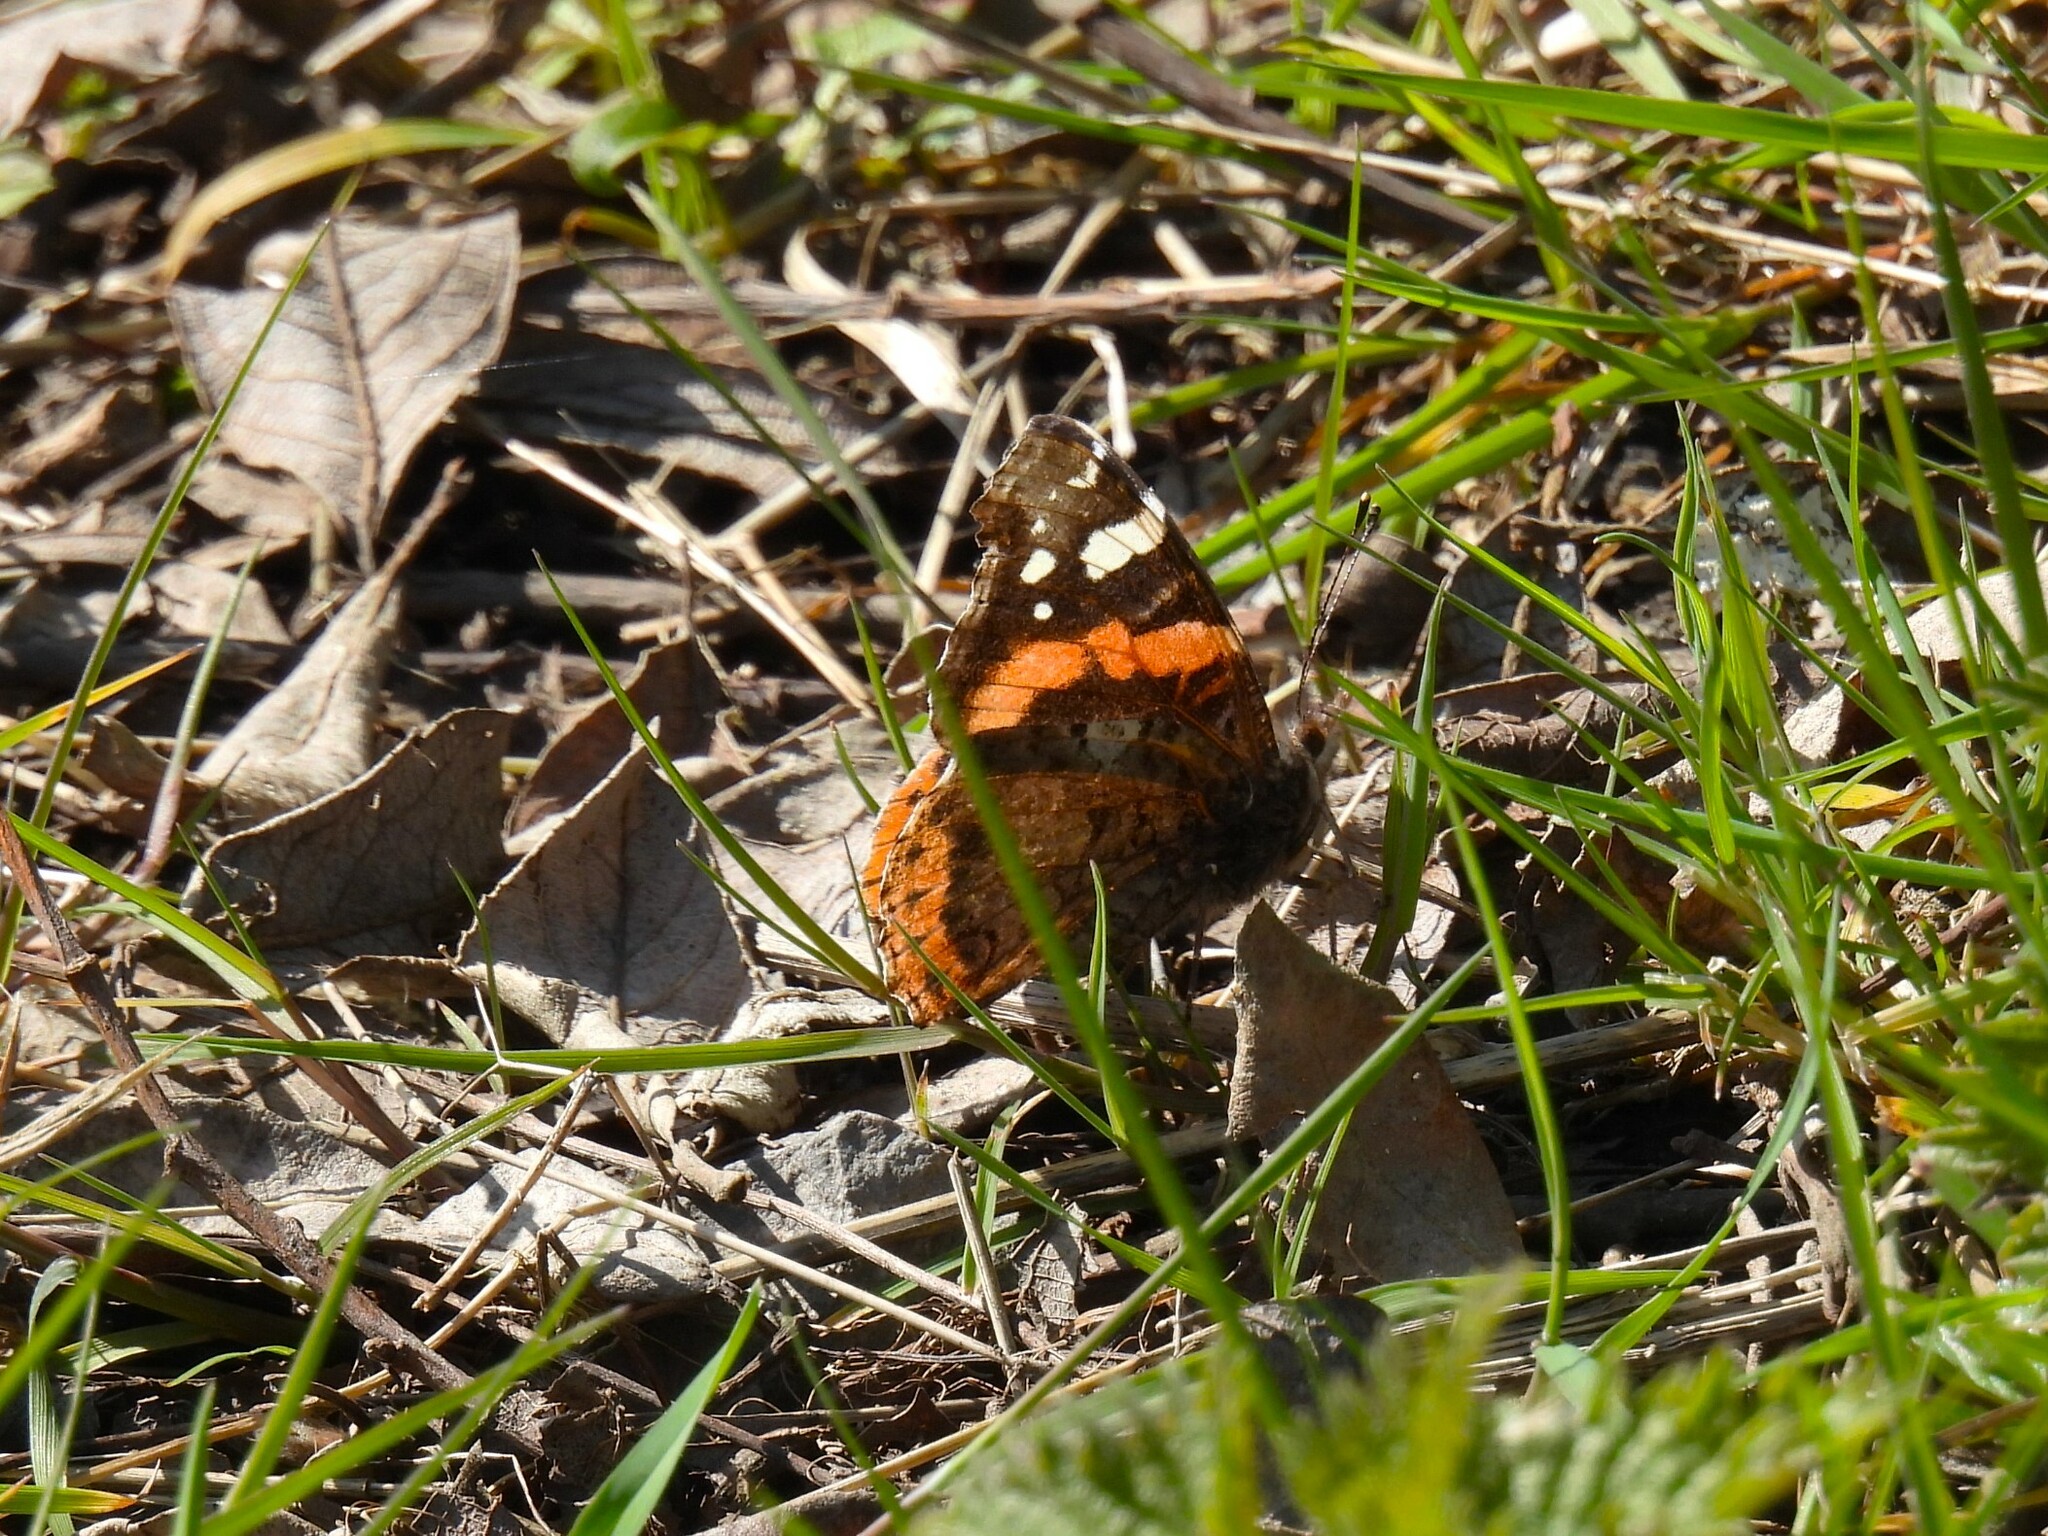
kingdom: Animalia
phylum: Arthropoda
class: Insecta
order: Lepidoptera
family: Nymphalidae
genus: Vanessa
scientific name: Vanessa atalanta
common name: Red admiral
